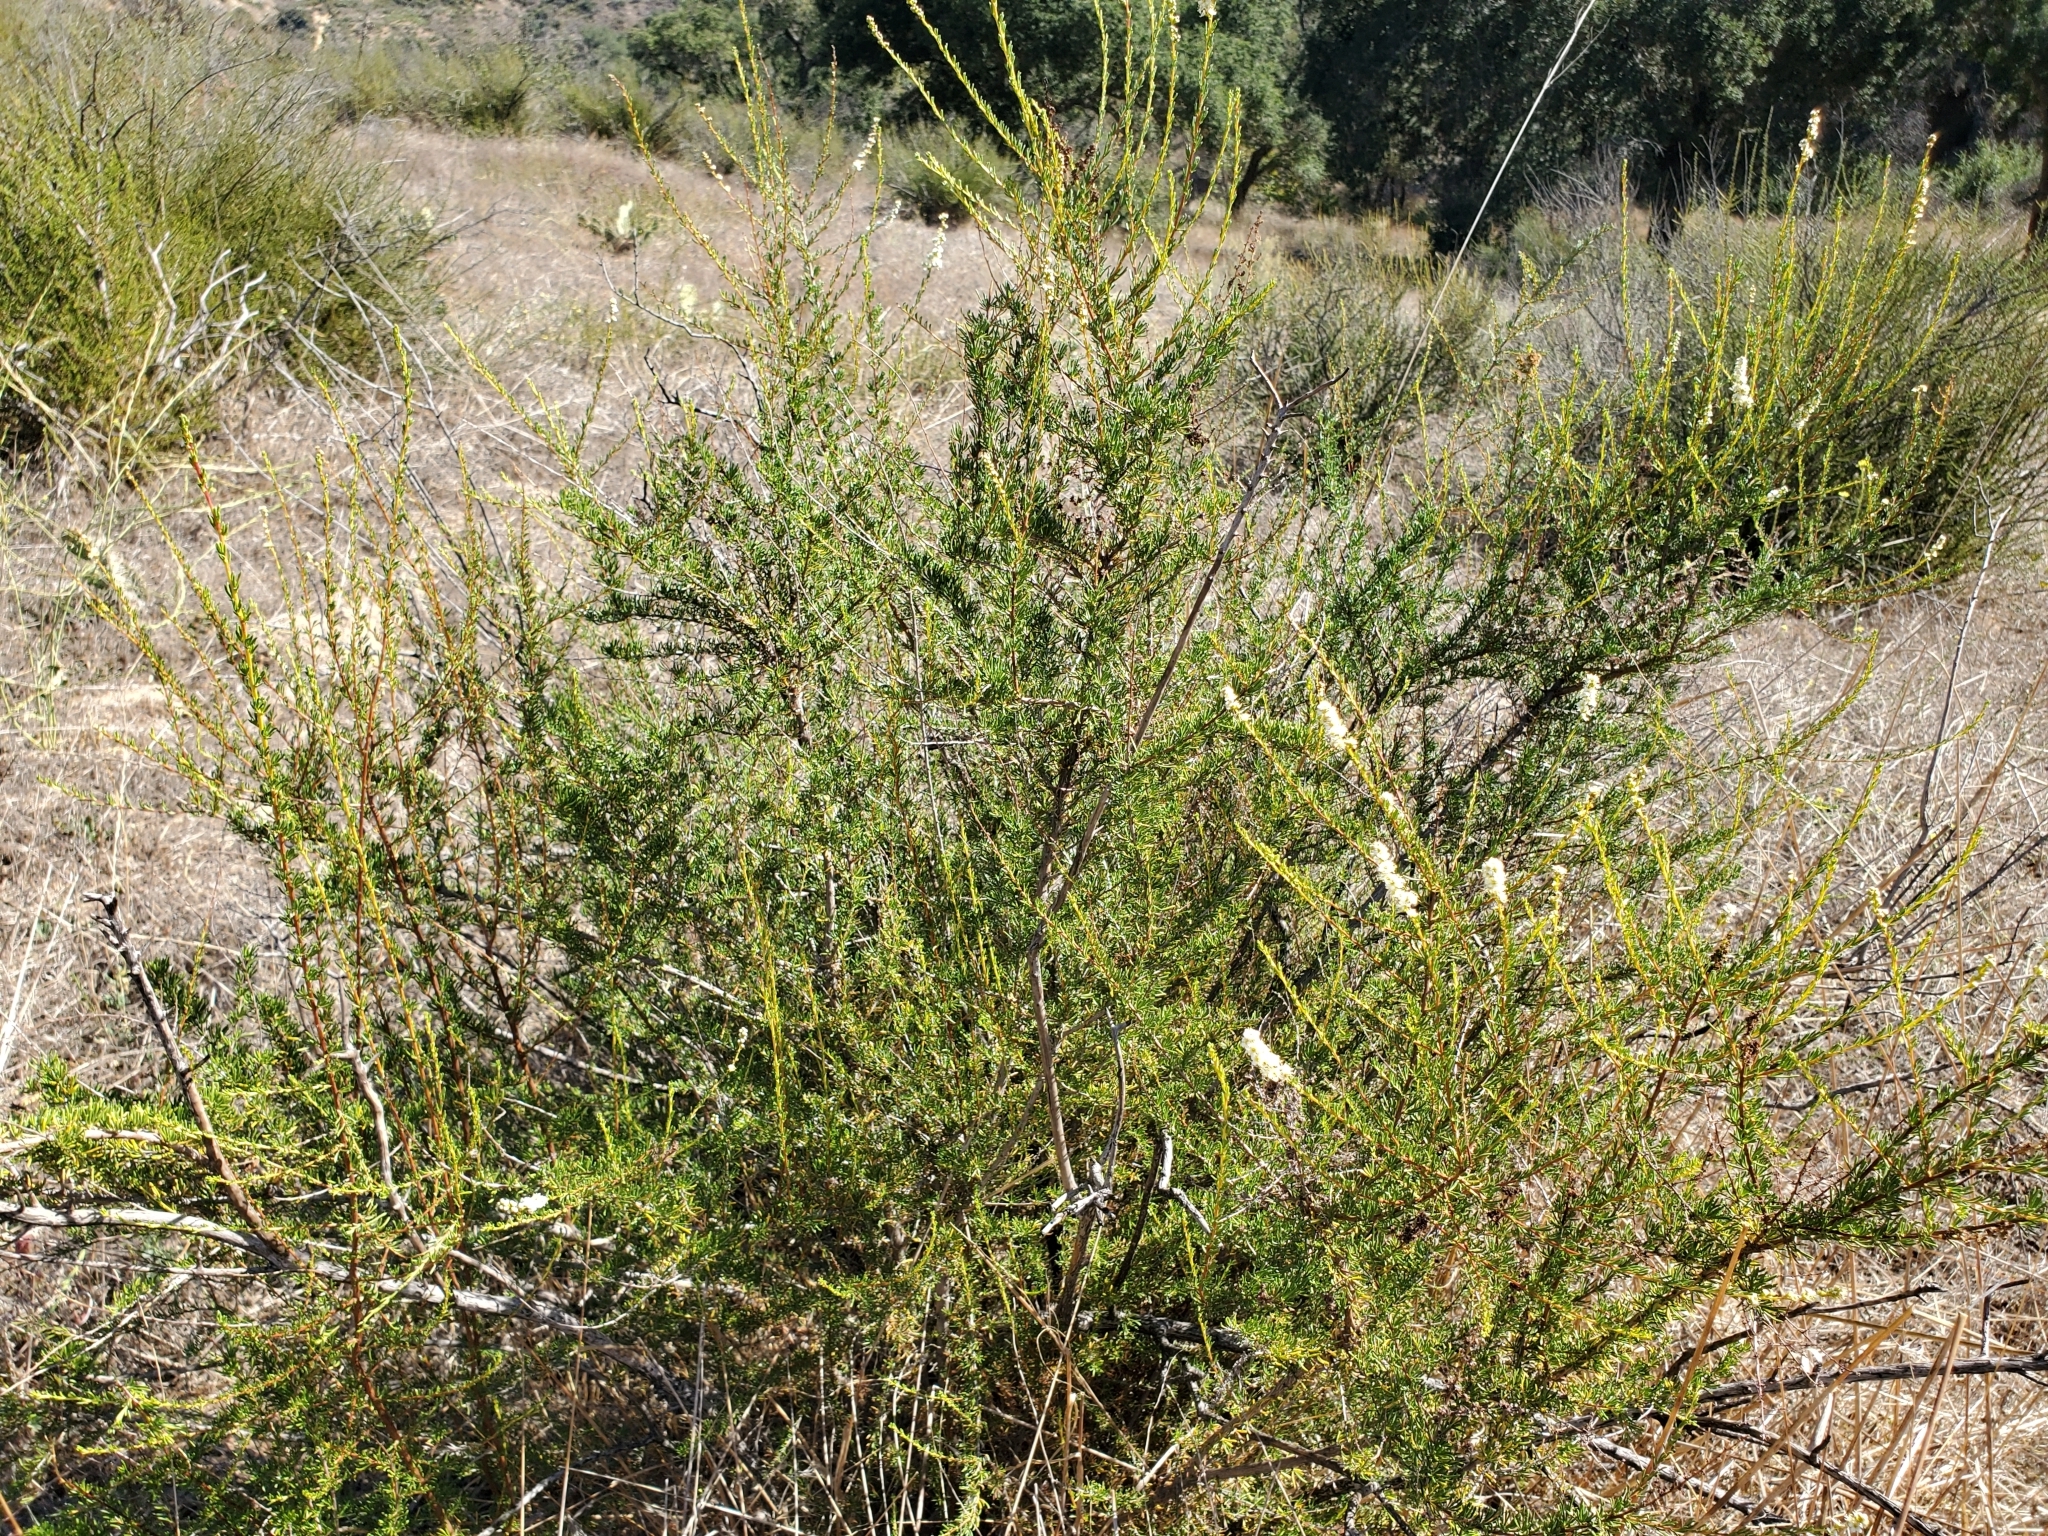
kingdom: Plantae
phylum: Tracheophyta
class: Magnoliopsida
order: Rosales
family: Rosaceae
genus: Adenostoma
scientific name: Adenostoma fasciculatum
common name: Chamise
